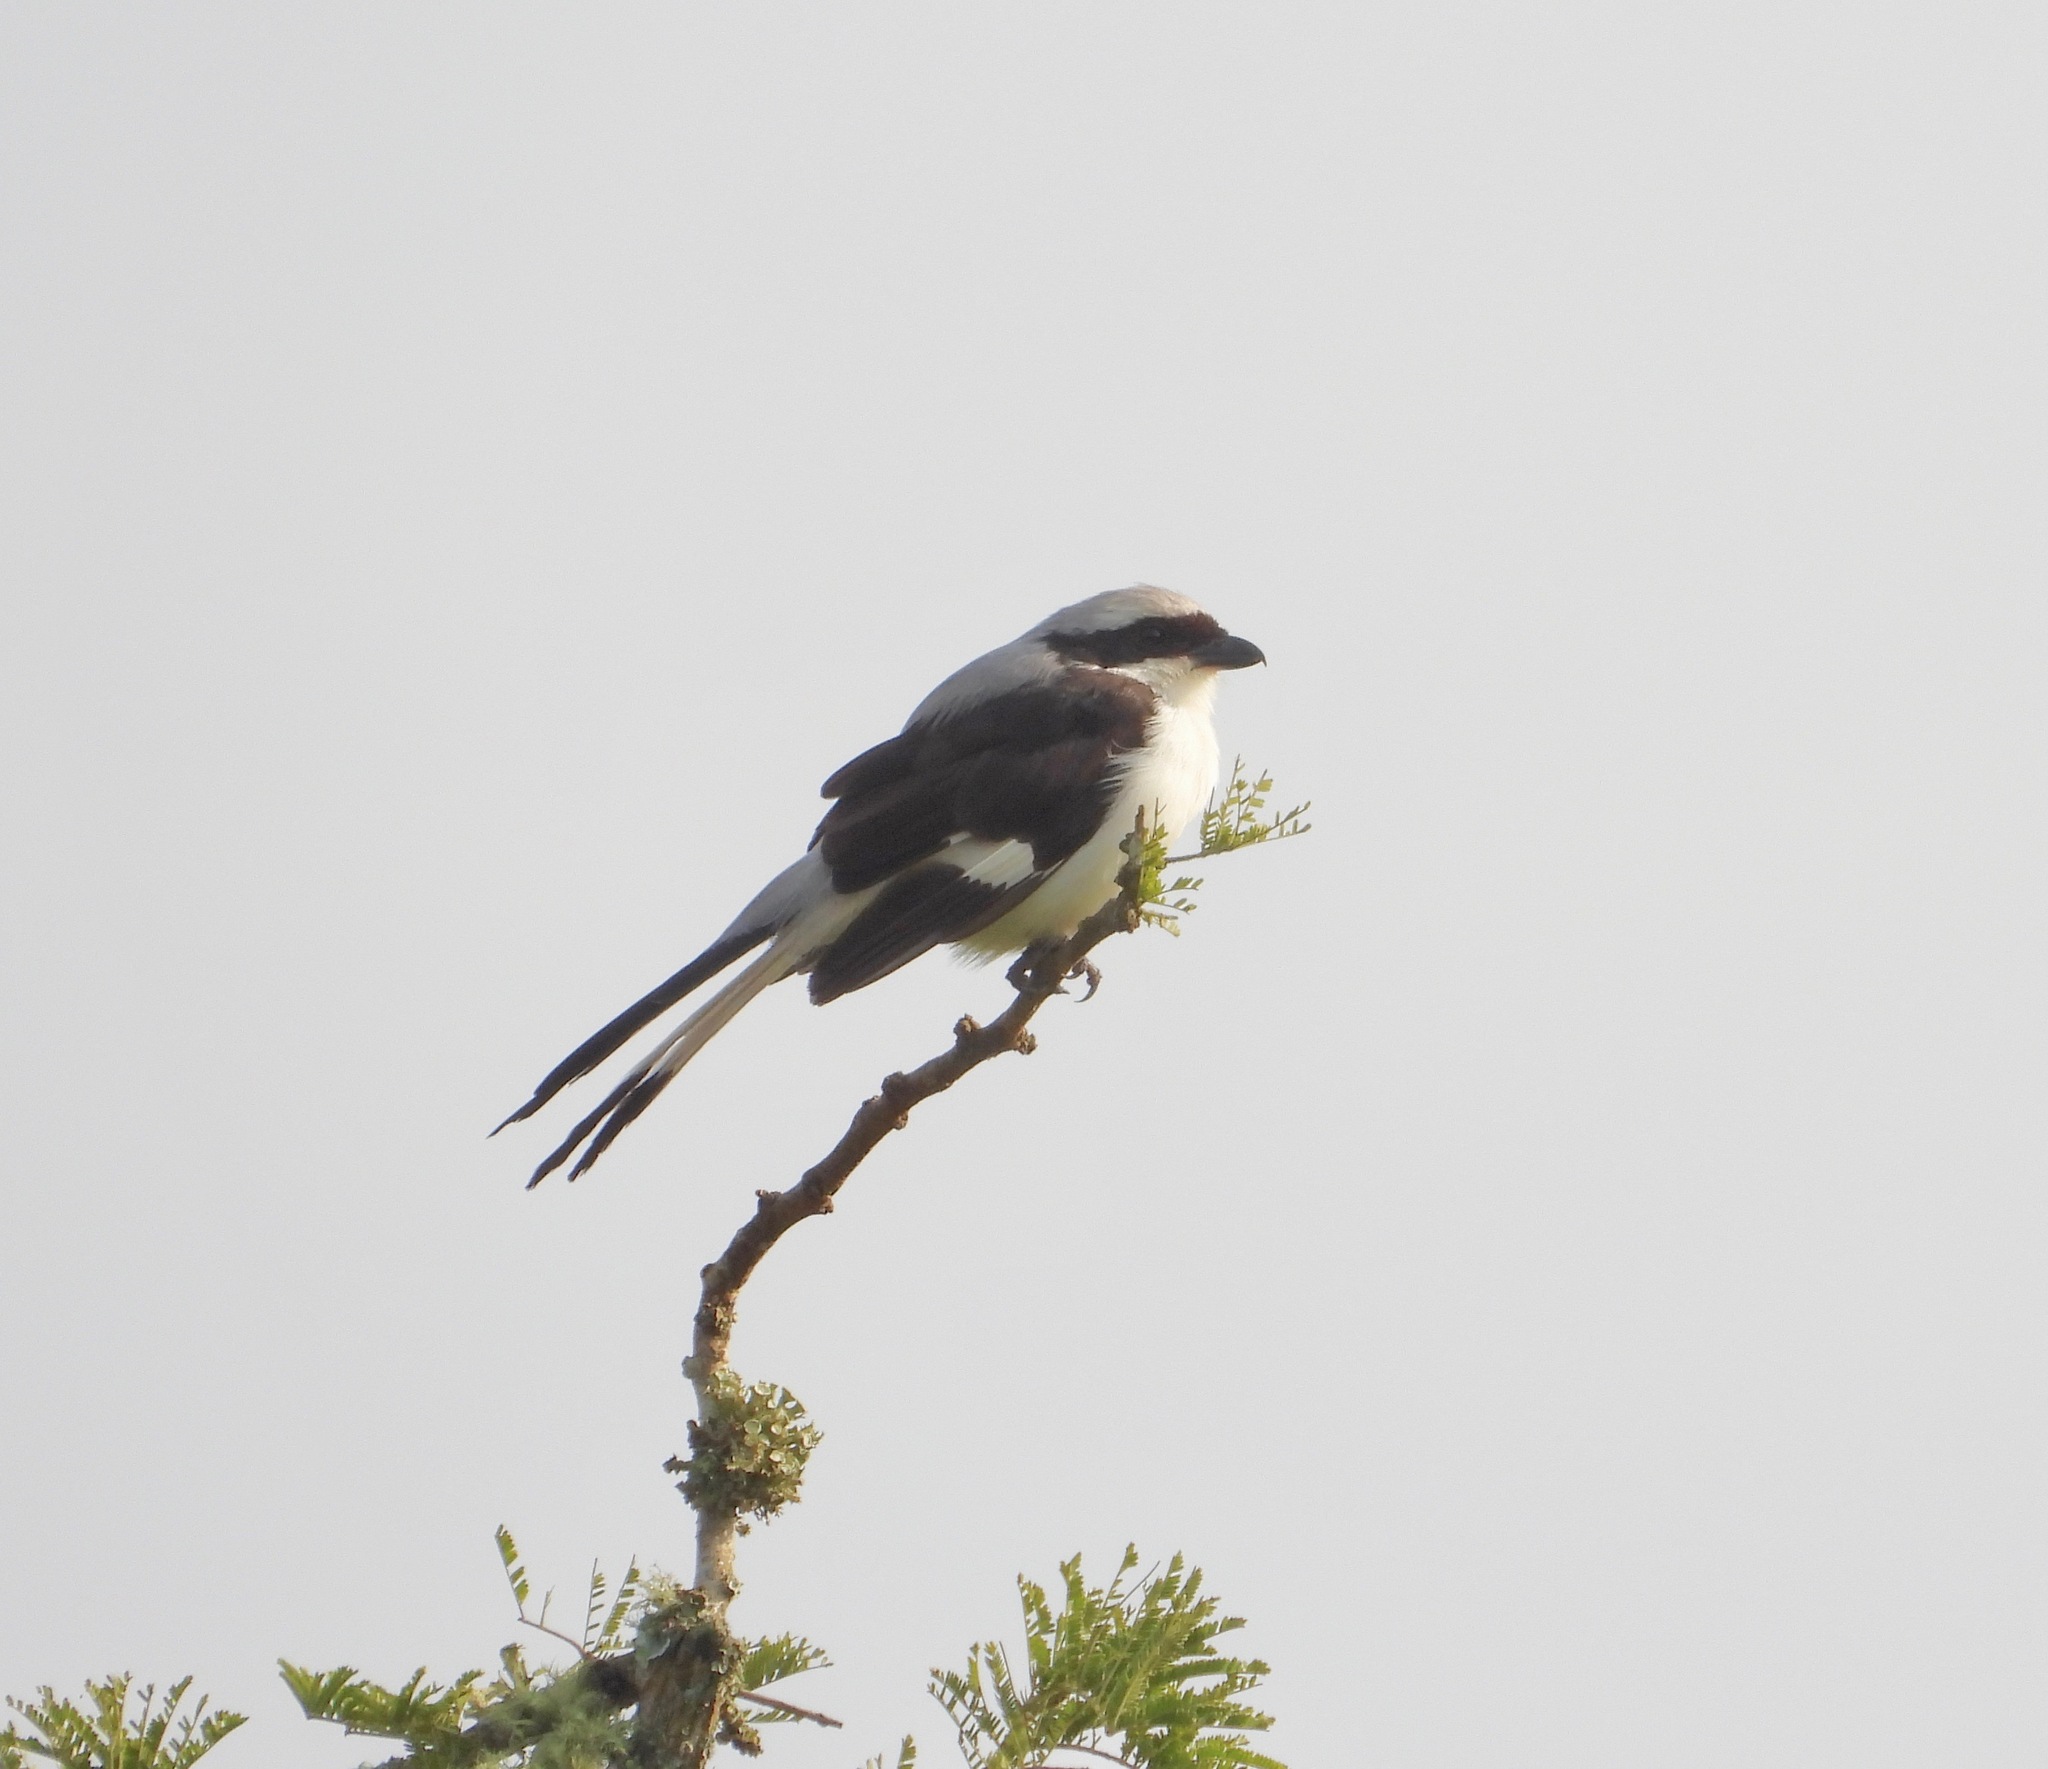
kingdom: Animalia
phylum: Chordata
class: Aves
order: Passeriformes
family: Laniidae
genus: Lanius
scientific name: Lanius excubitoroides
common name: Grey-backed fiscal
